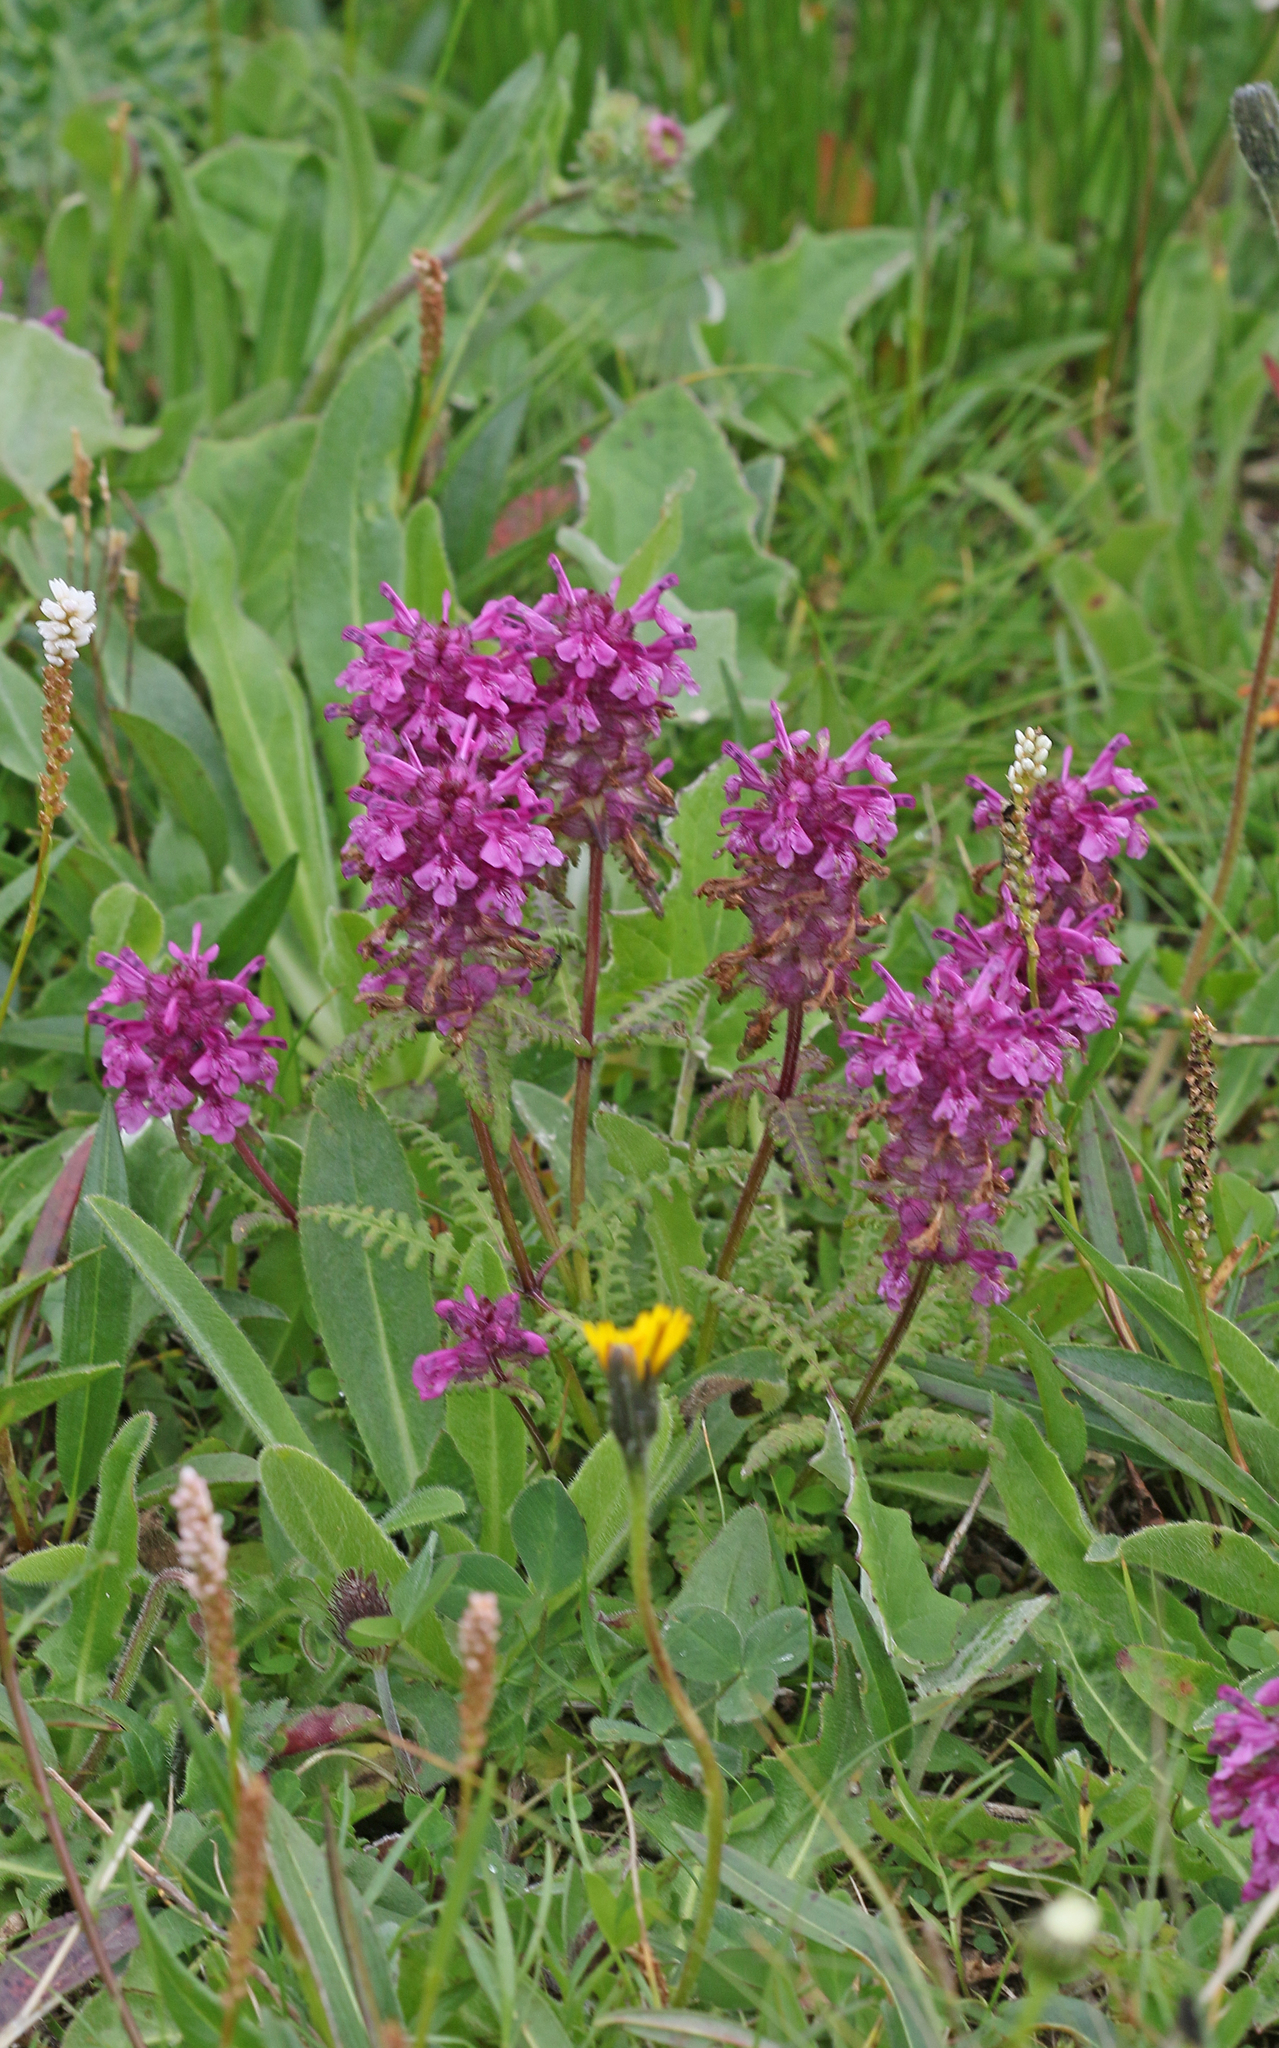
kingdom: Plantae
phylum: Tracheophyta
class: Magnoliopsida
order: Lamiales
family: Orobanchaceae
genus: Pedicularis
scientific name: Pedicularis verticillata
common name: Whorled lousewort
